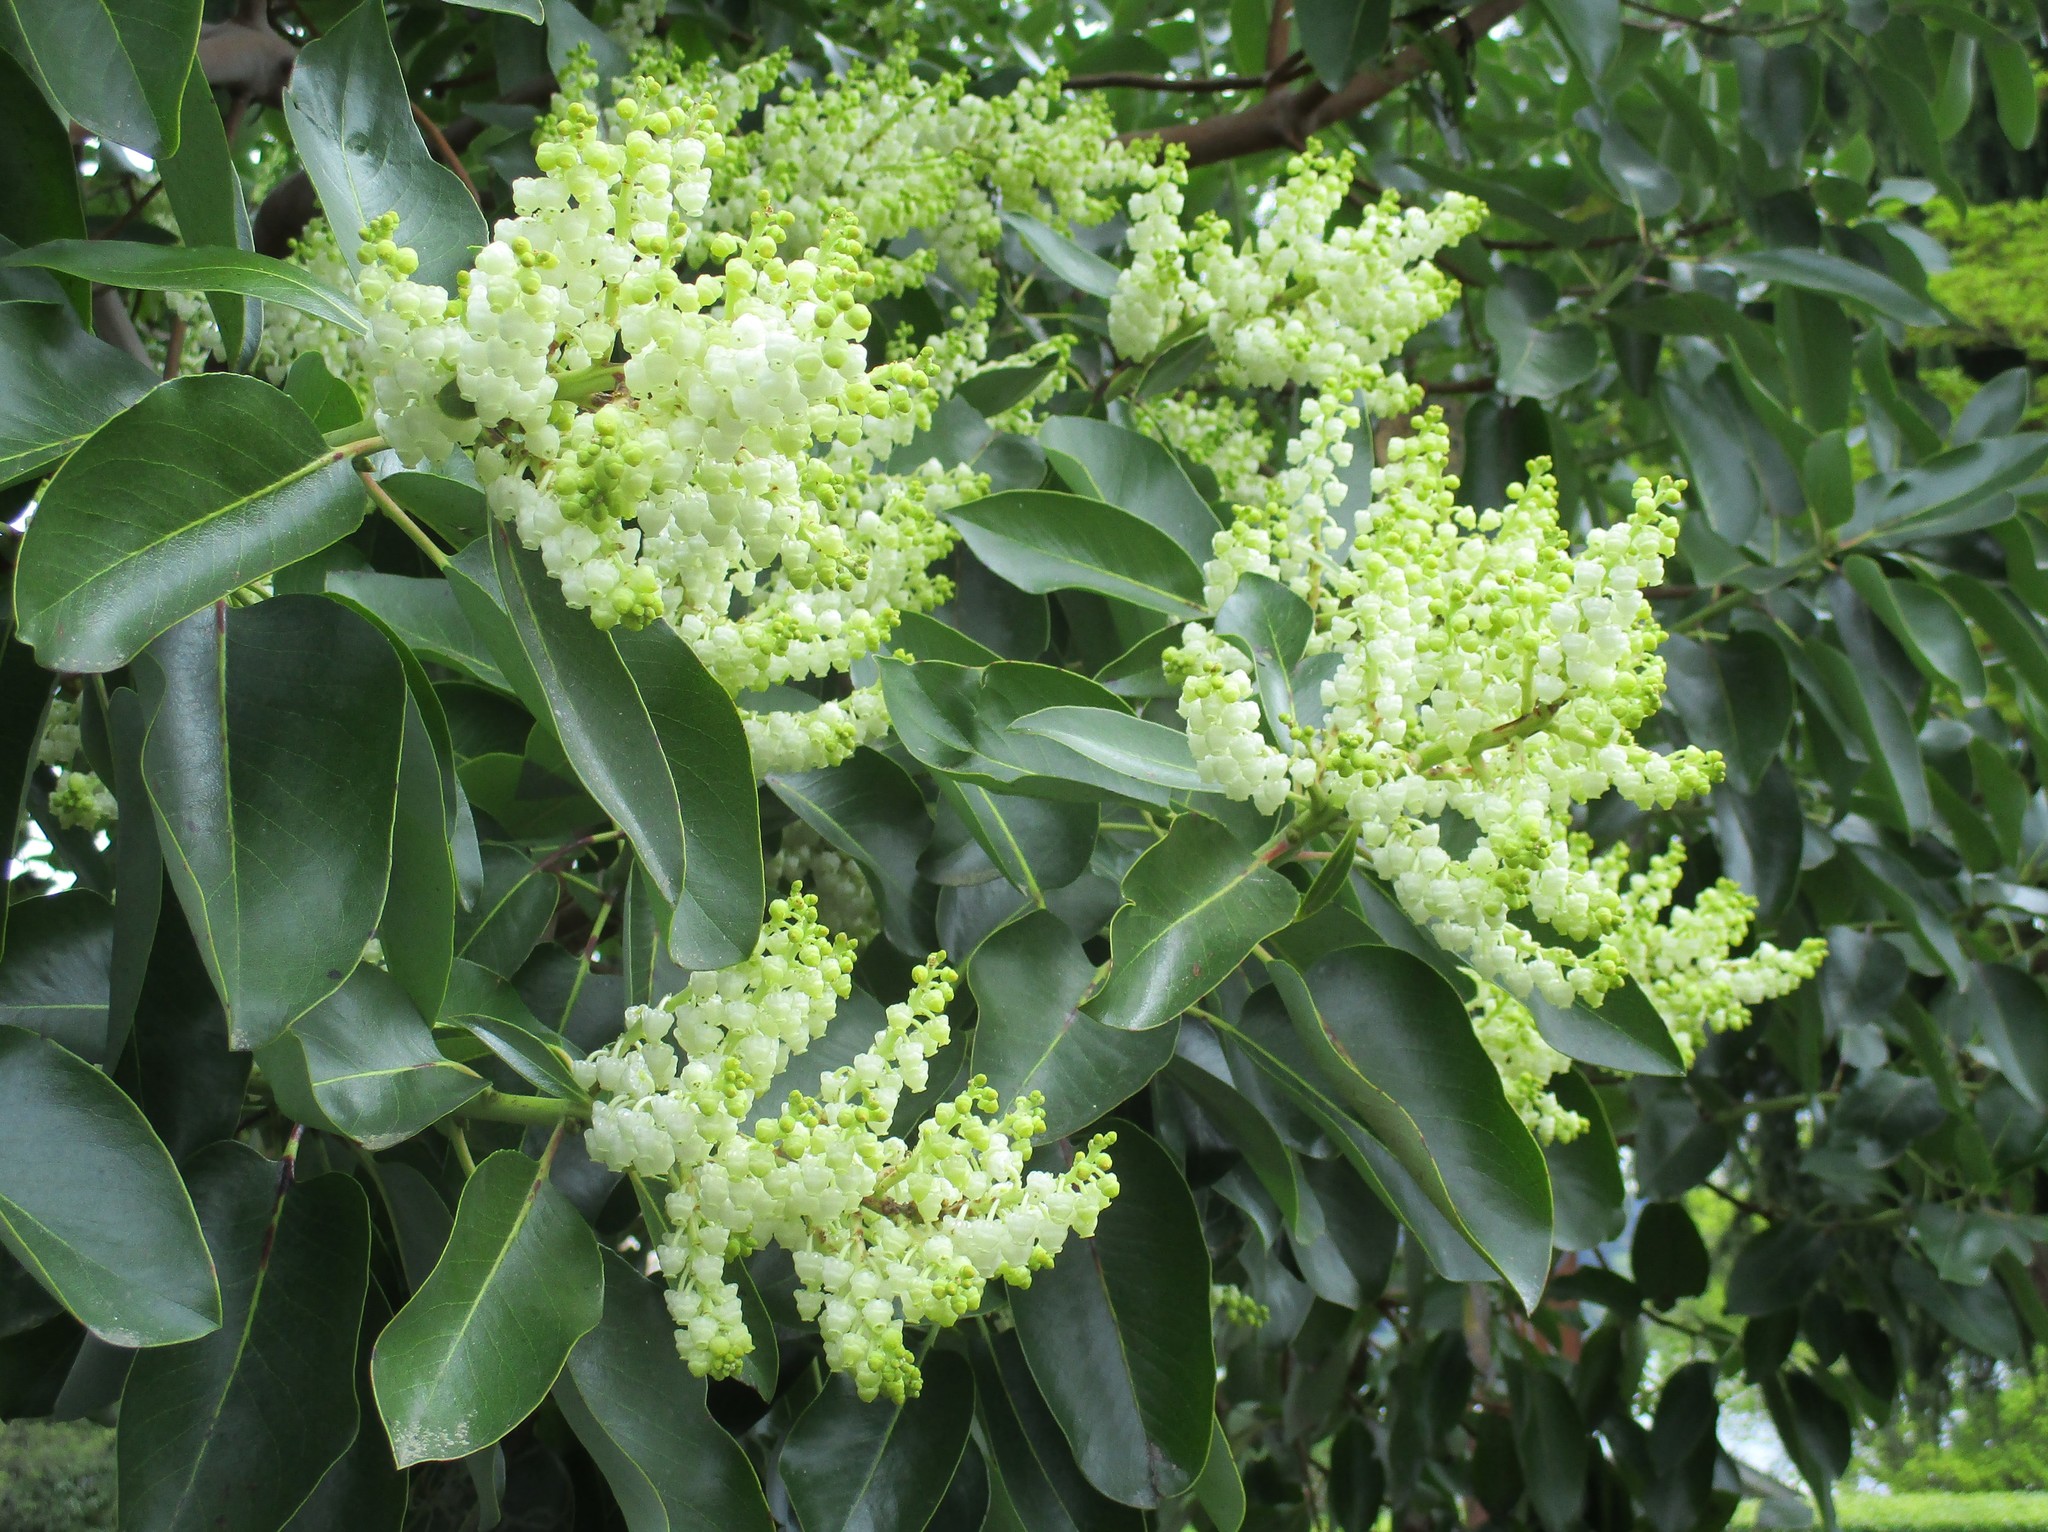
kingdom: Plantae
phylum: Tracheophyta
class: Magnoliopsida
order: Ericales
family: Ericaceae
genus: Arbutus
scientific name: Arbutus menziesii
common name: Pacific madrone
